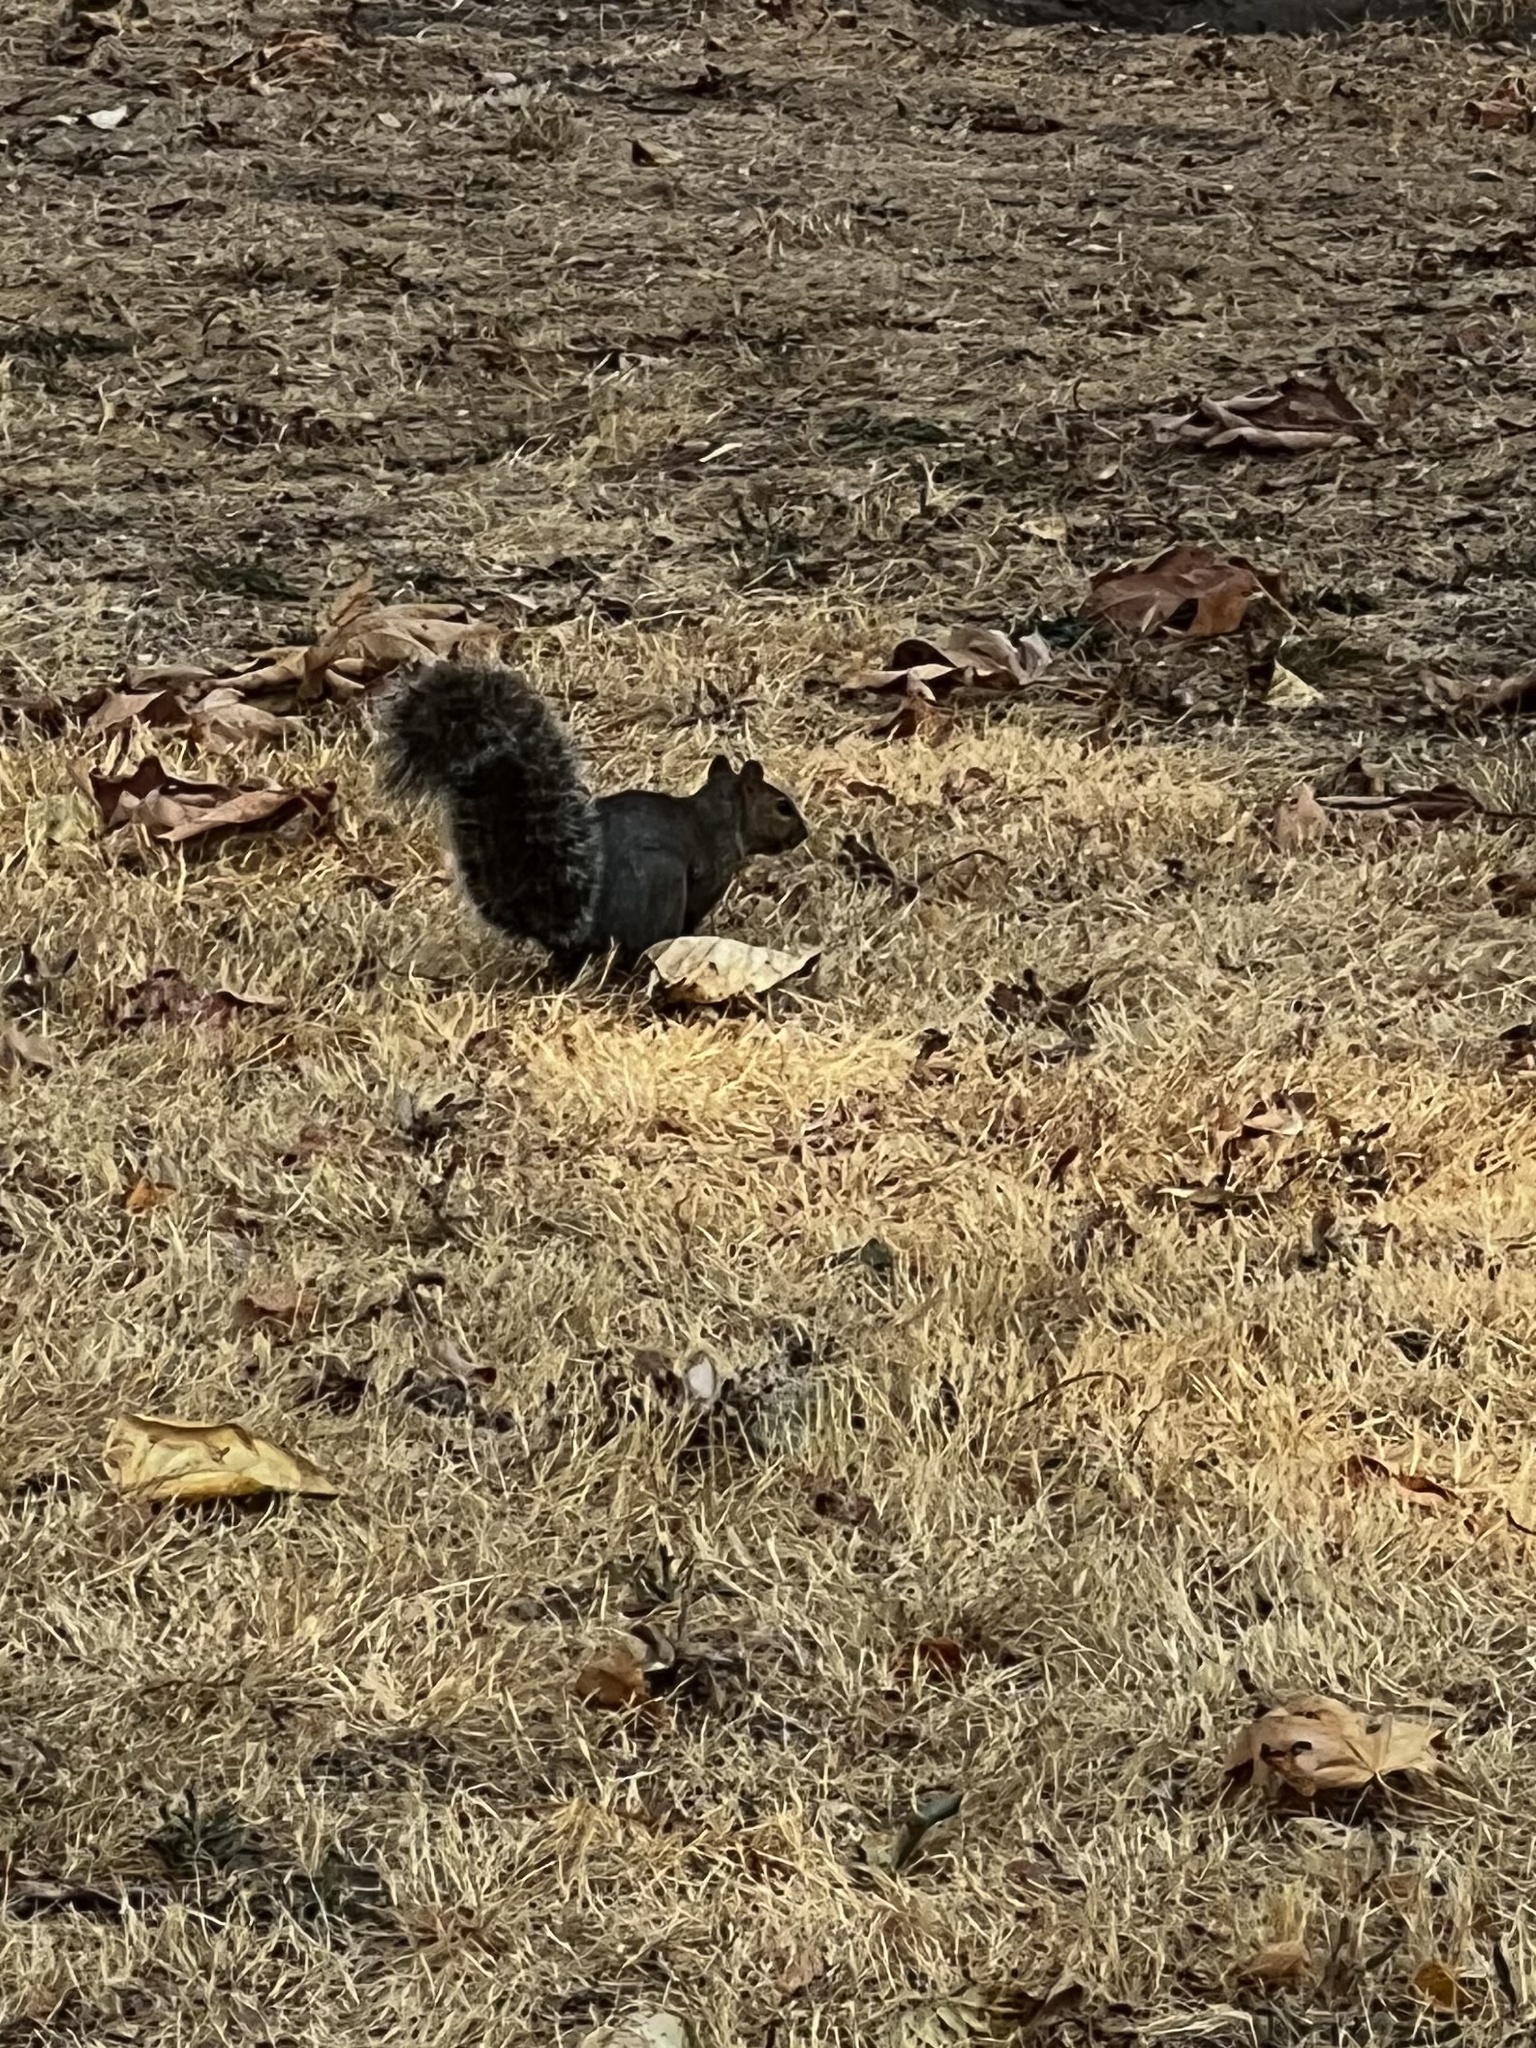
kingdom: Animalia
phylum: Chordata
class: Mammalia
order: Rodentia
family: Sciuridae
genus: Sciurus
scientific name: Sciurus carolinensis
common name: Eastern gray squirrel
